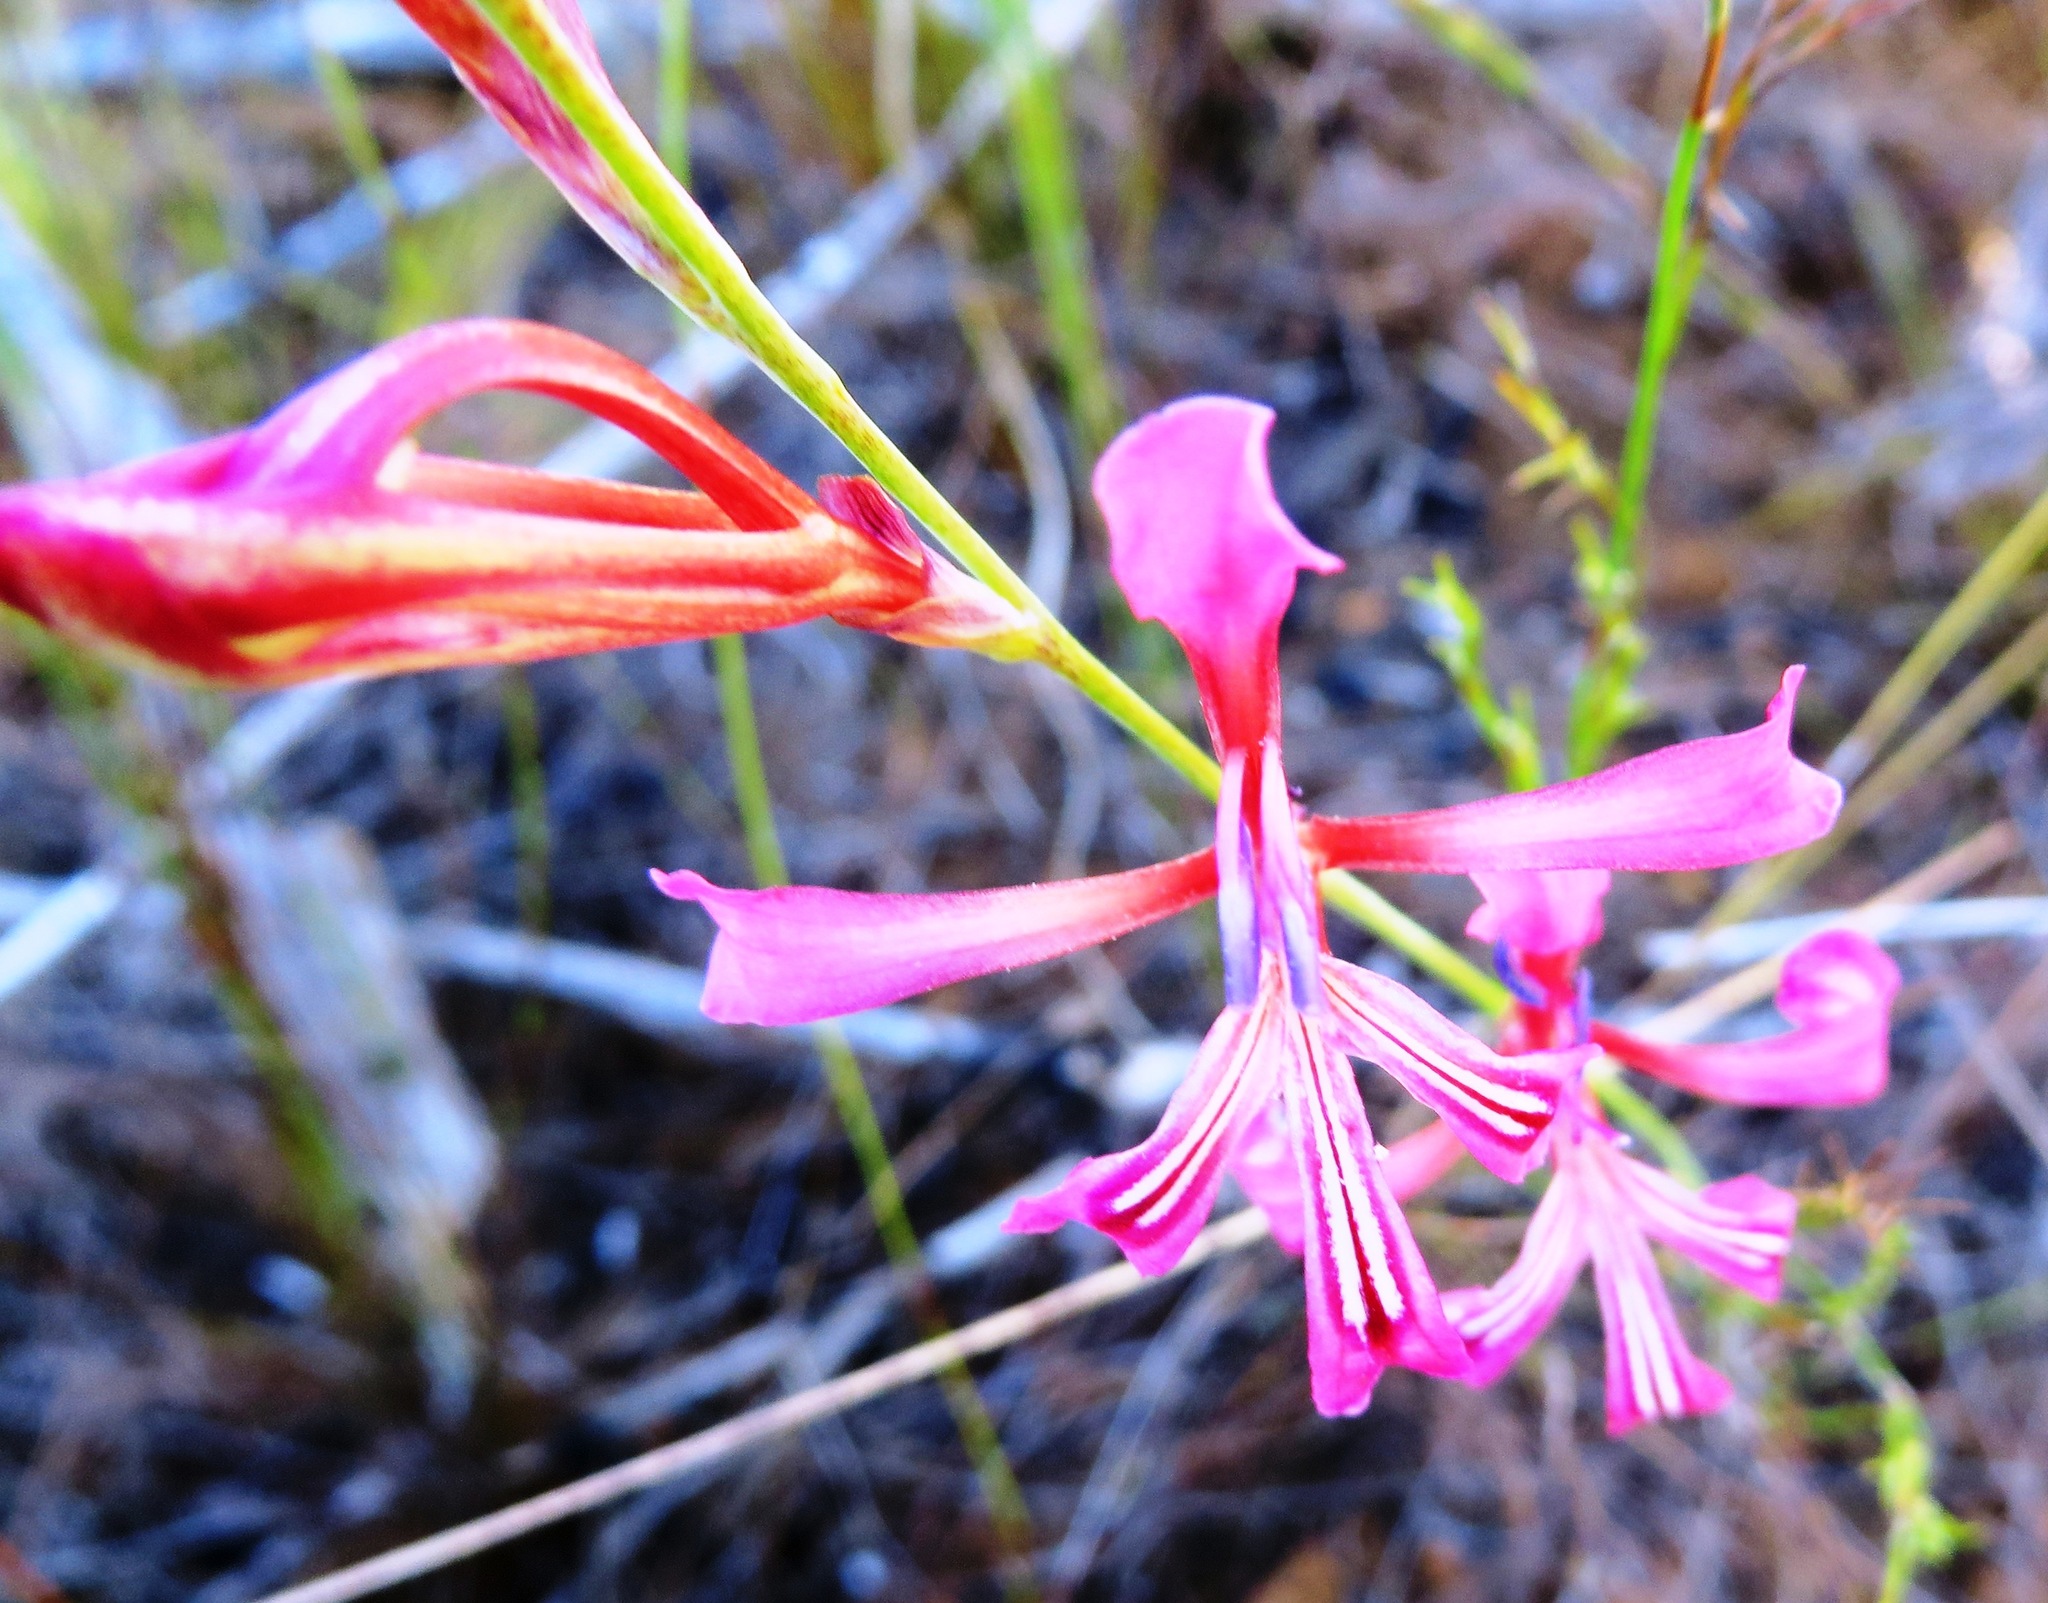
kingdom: Plantae
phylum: Tracheophyta
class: Liliopsida
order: Asparagales
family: Iridaceae
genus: Tritoniopsis
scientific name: Tritoniopsis lata
